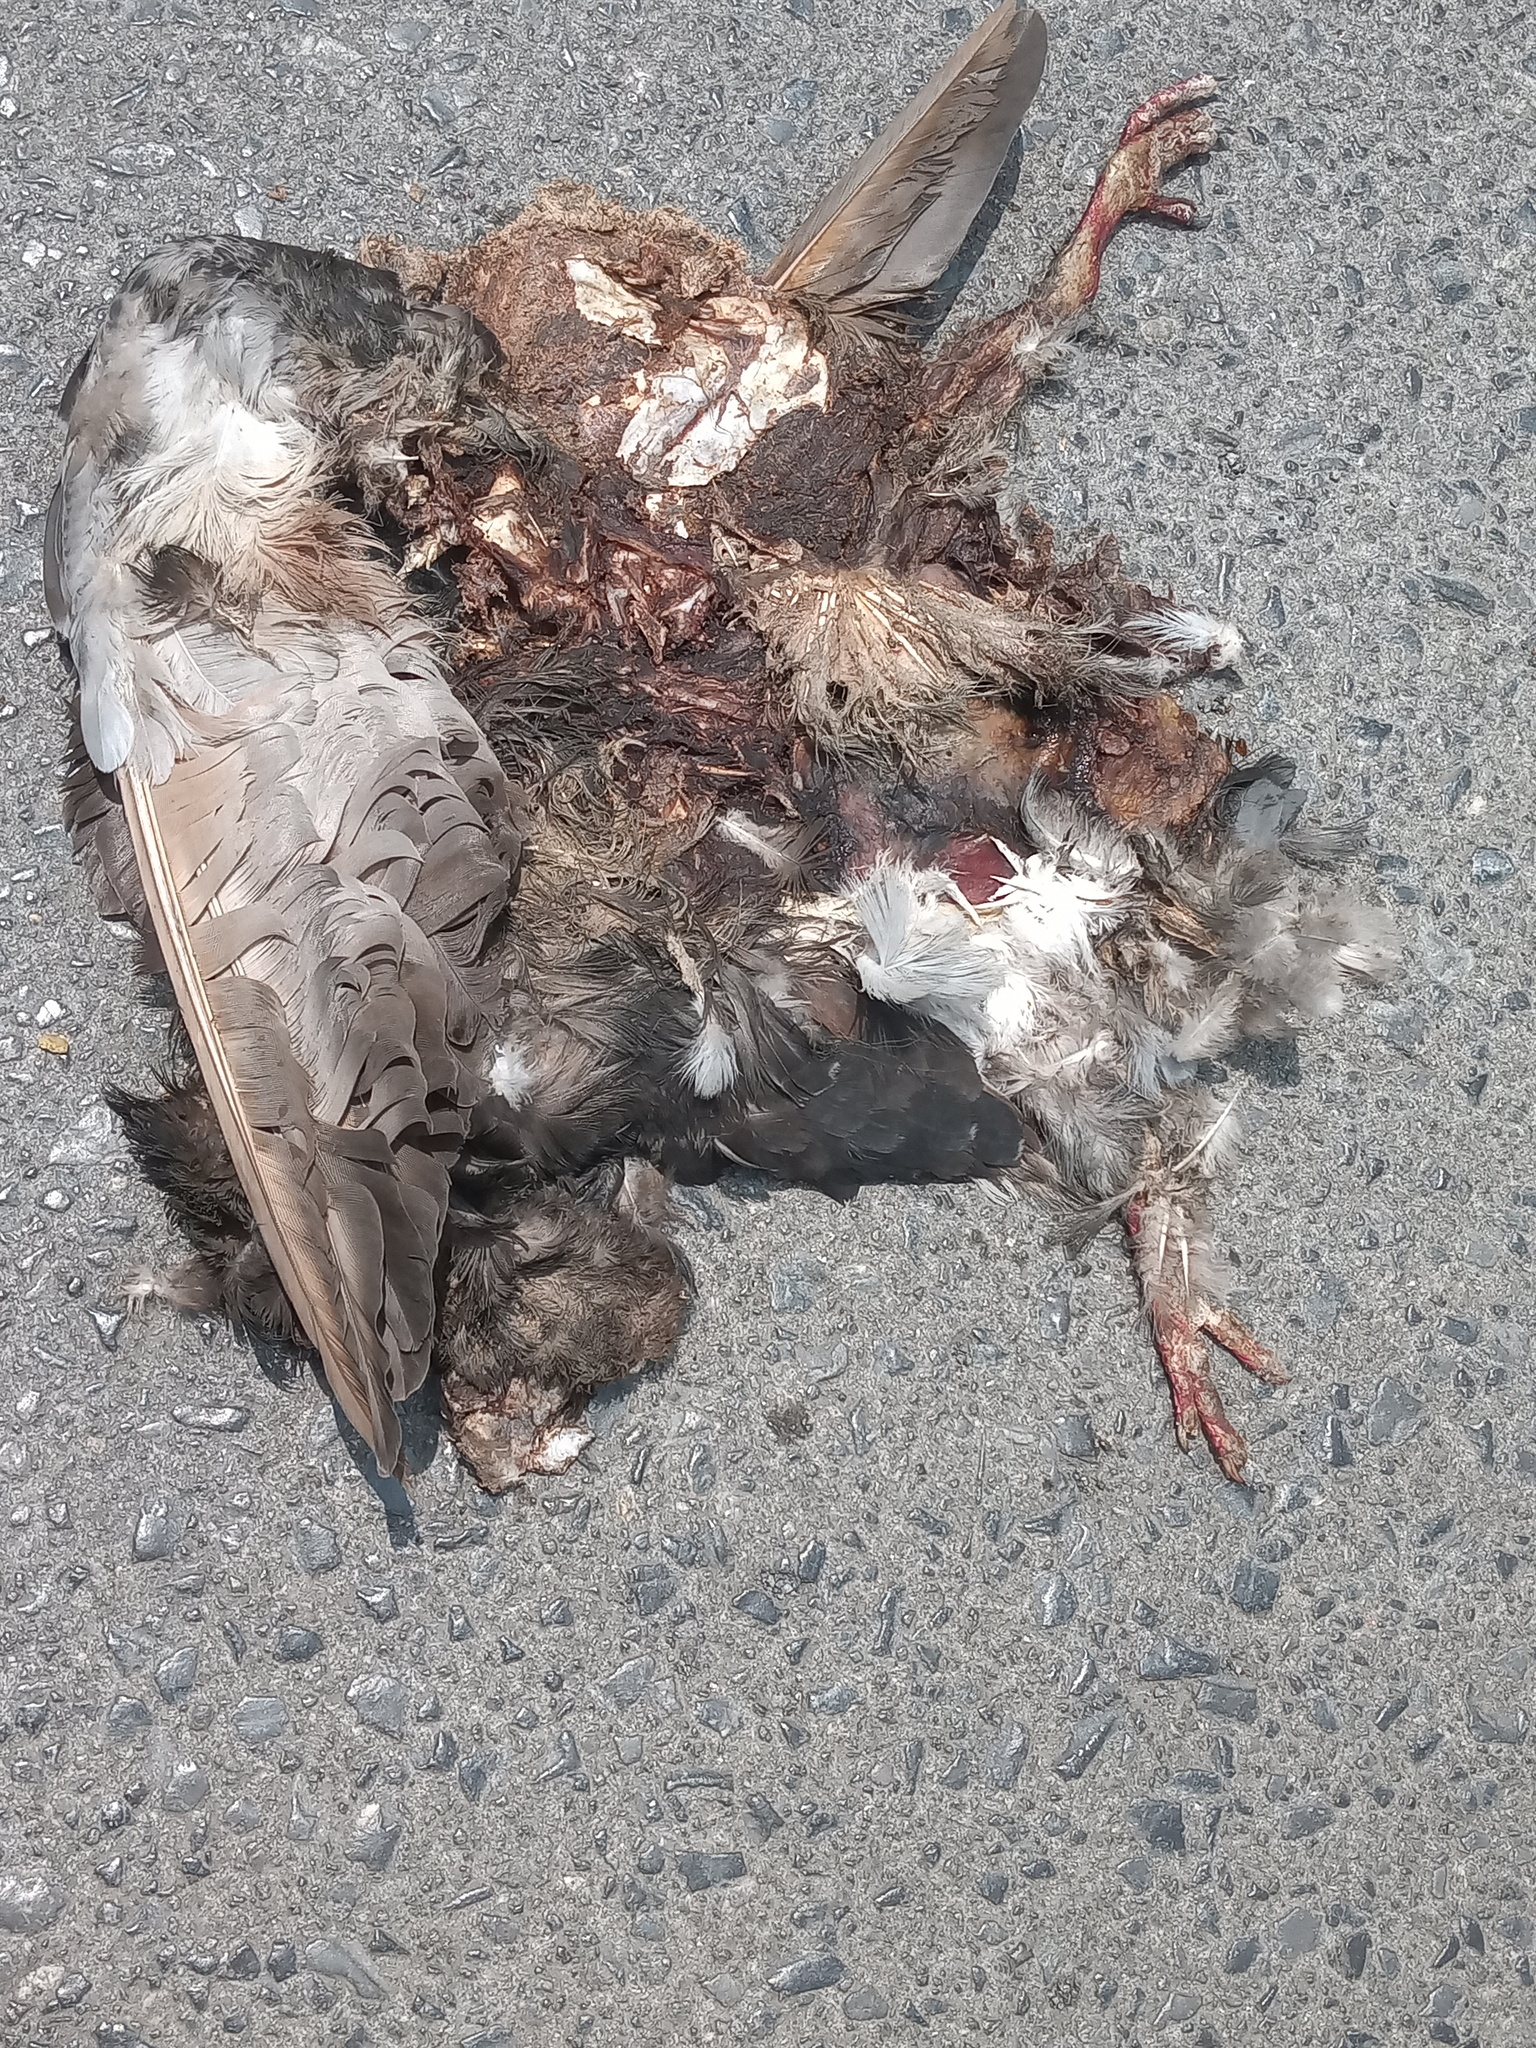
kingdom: Animalia
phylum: Chordata
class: Aves
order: Columbiformes
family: Columbidae
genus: Columba
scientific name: Columba livia
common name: Rock pigeon
